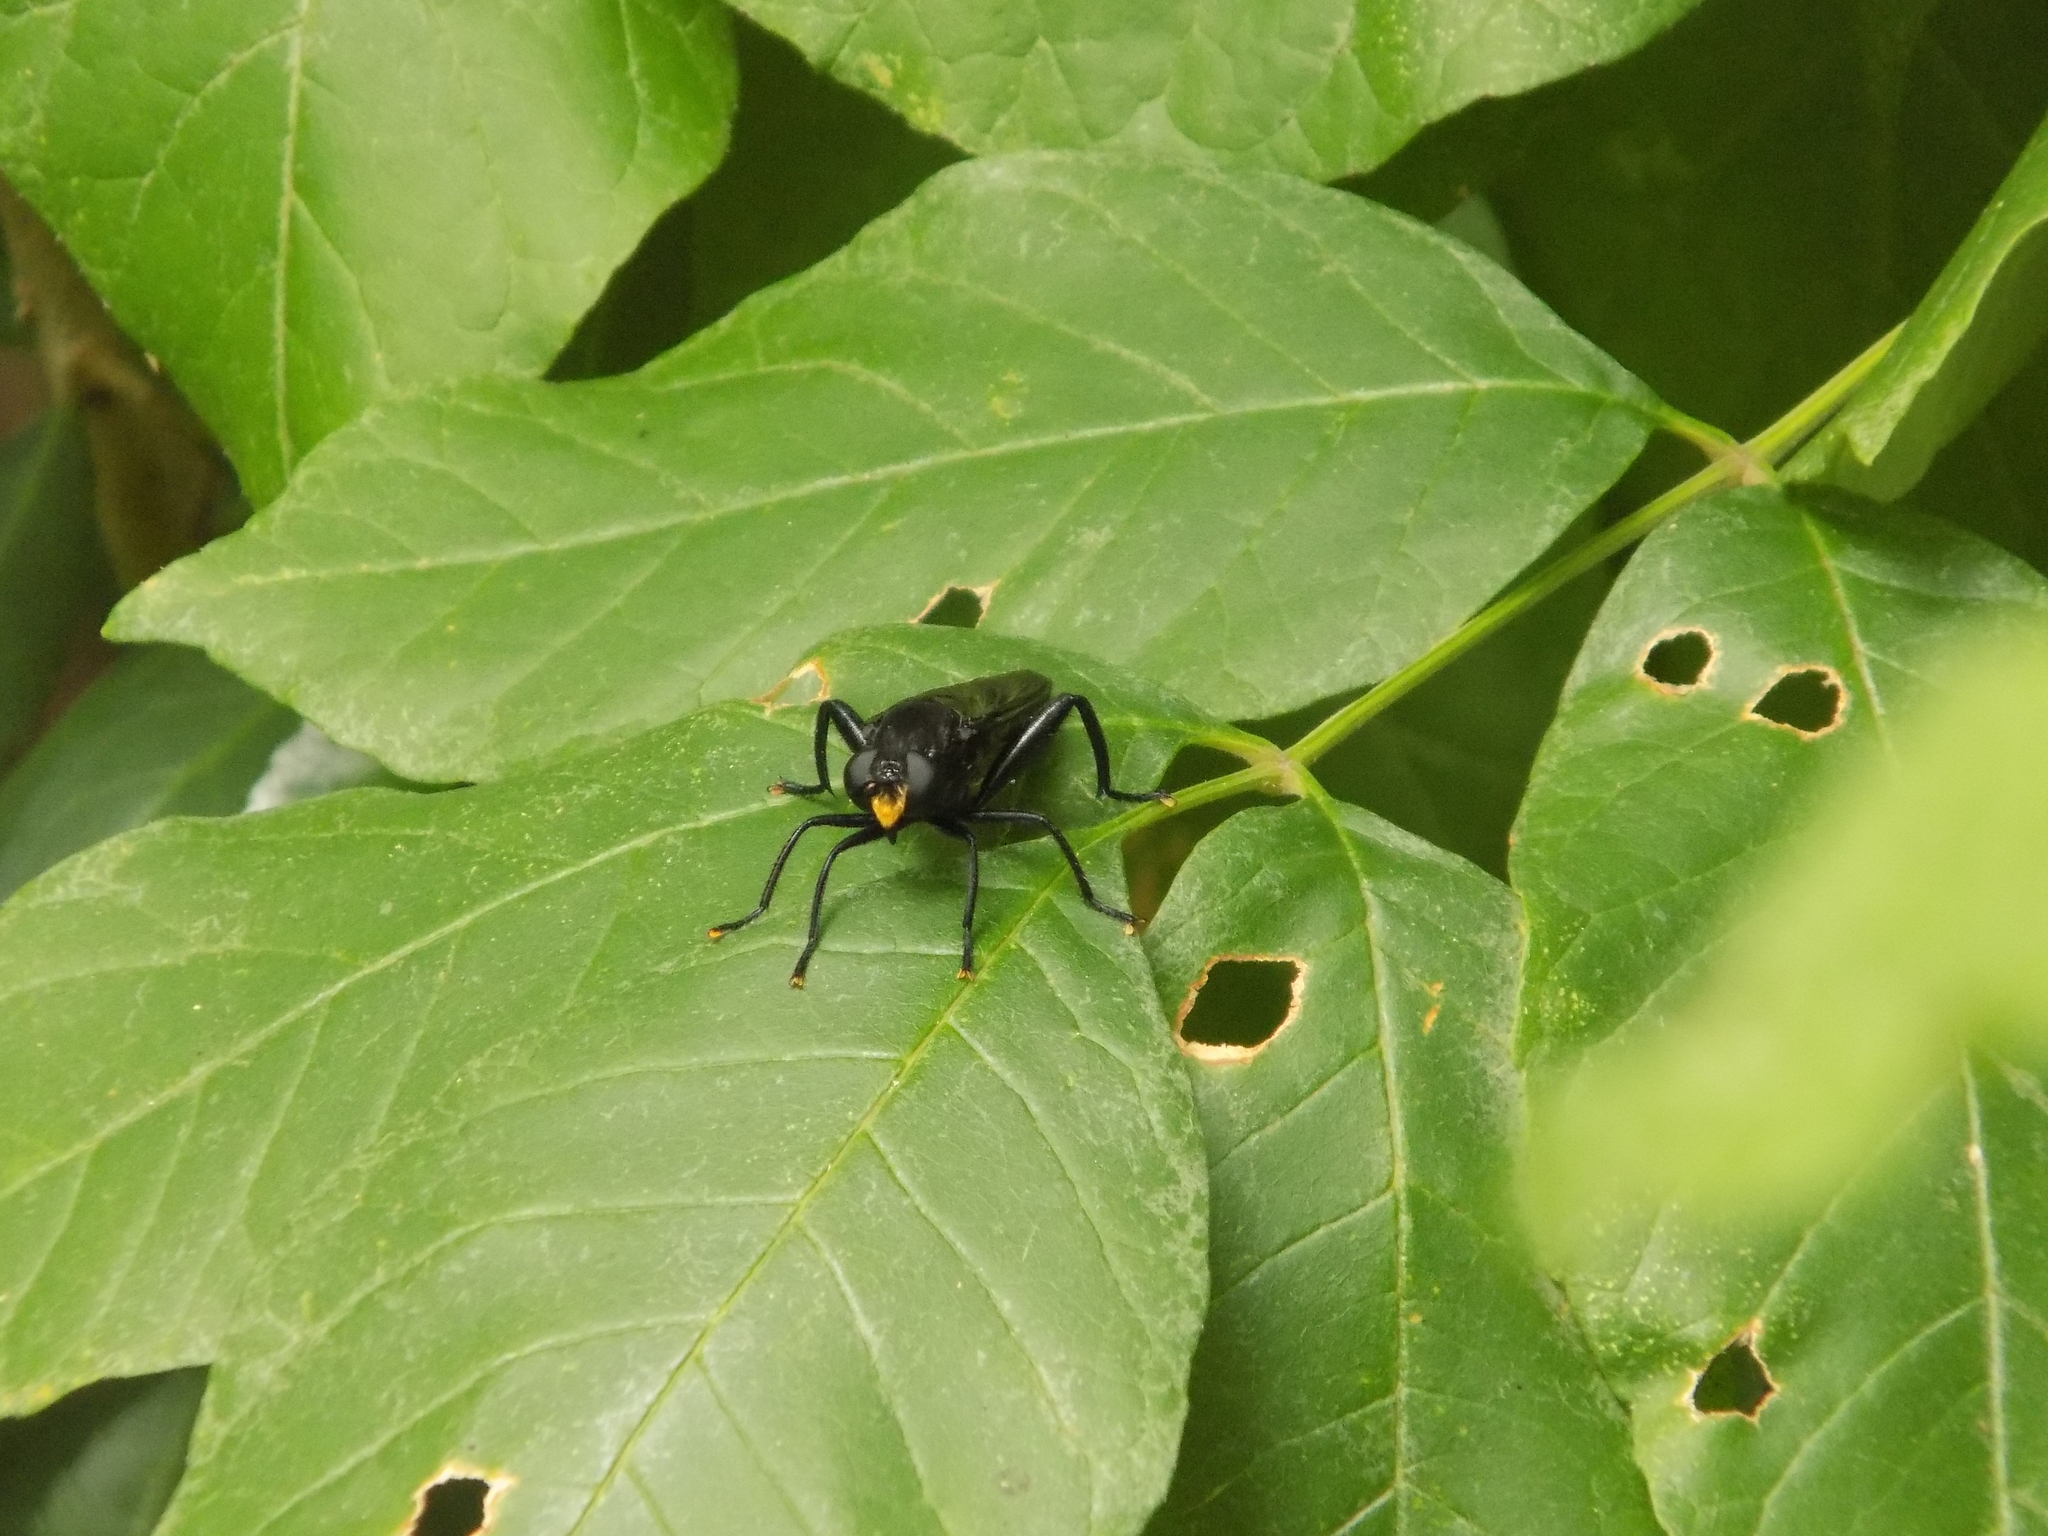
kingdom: Animalia
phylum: Arthropoda
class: Insecta
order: Diptera
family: Mydidae
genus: Mydas
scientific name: Mydas fulvifrons
